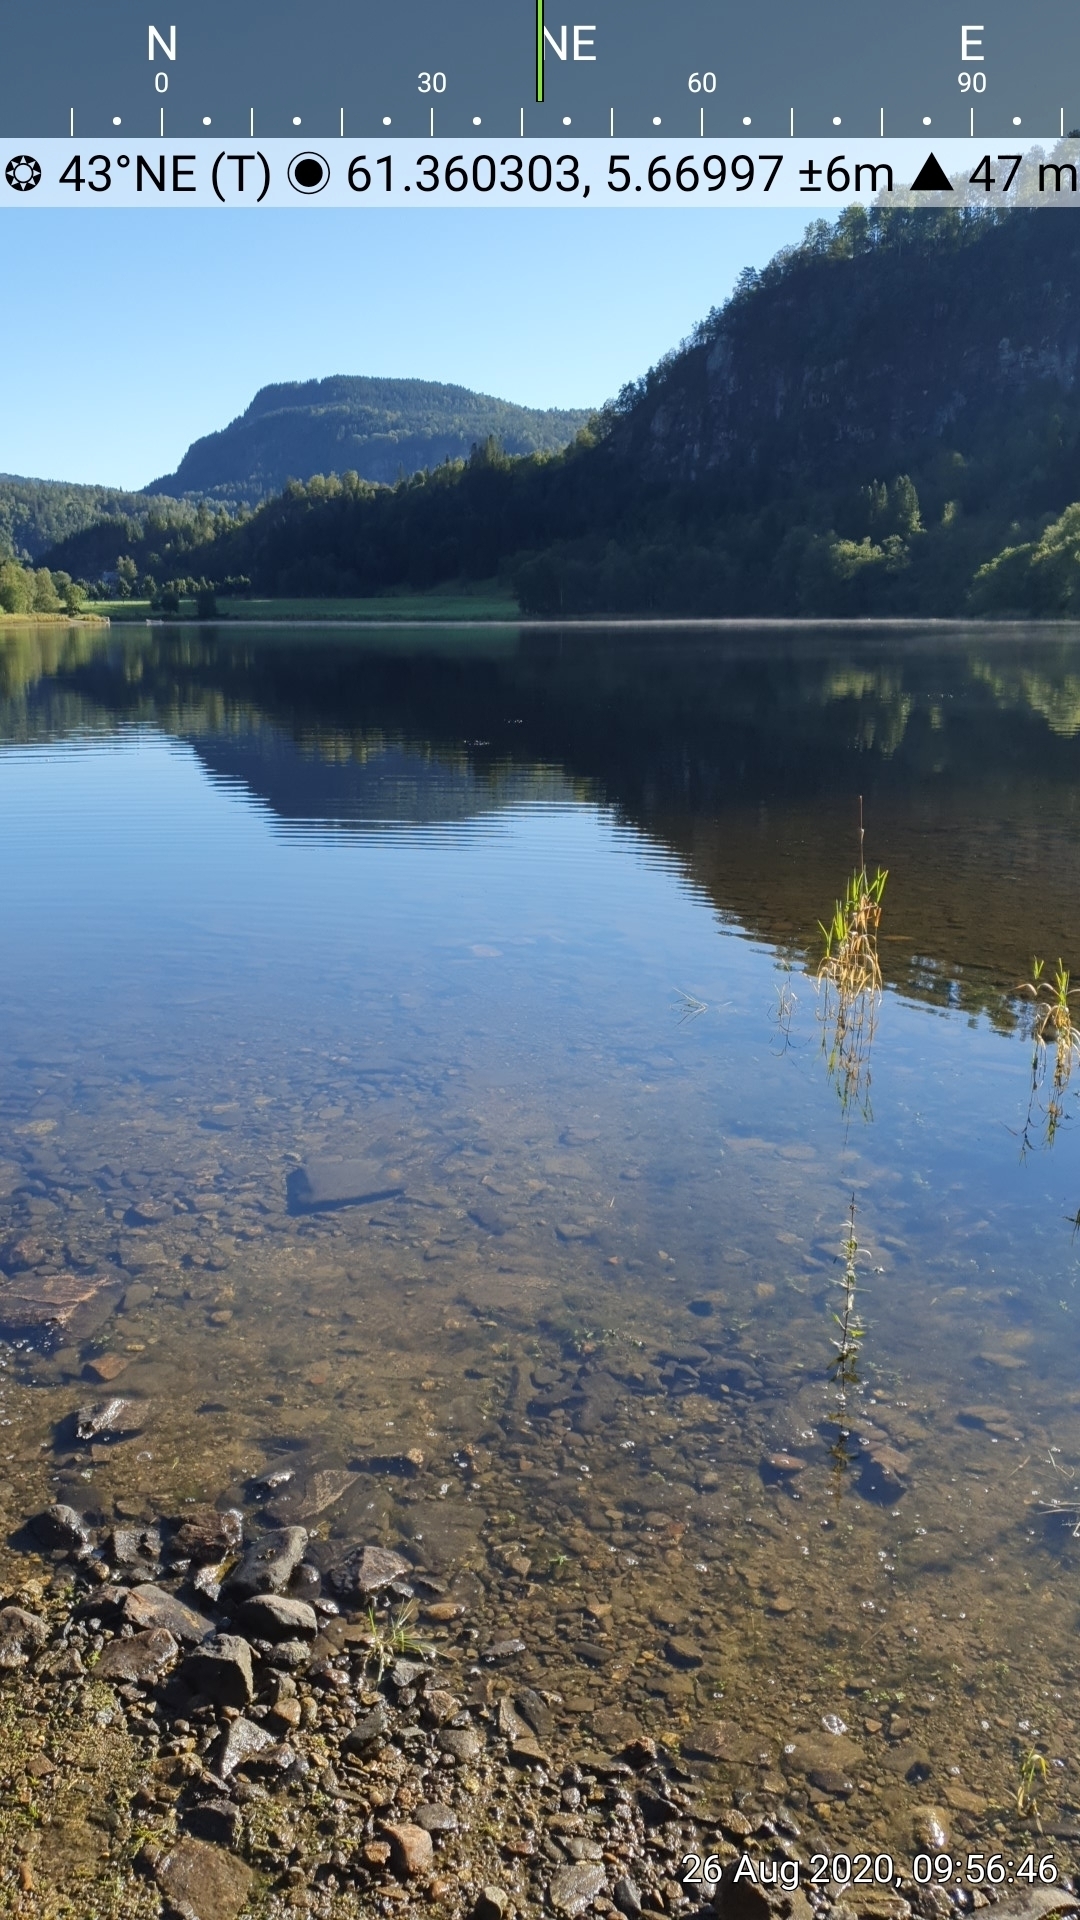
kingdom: Plantae
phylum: Tracheophyta
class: Magnoliopsida
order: Lamiales
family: Plantaginaceae
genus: Callitriche
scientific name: Callitriche brutia
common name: Pedunculate water-starwort
